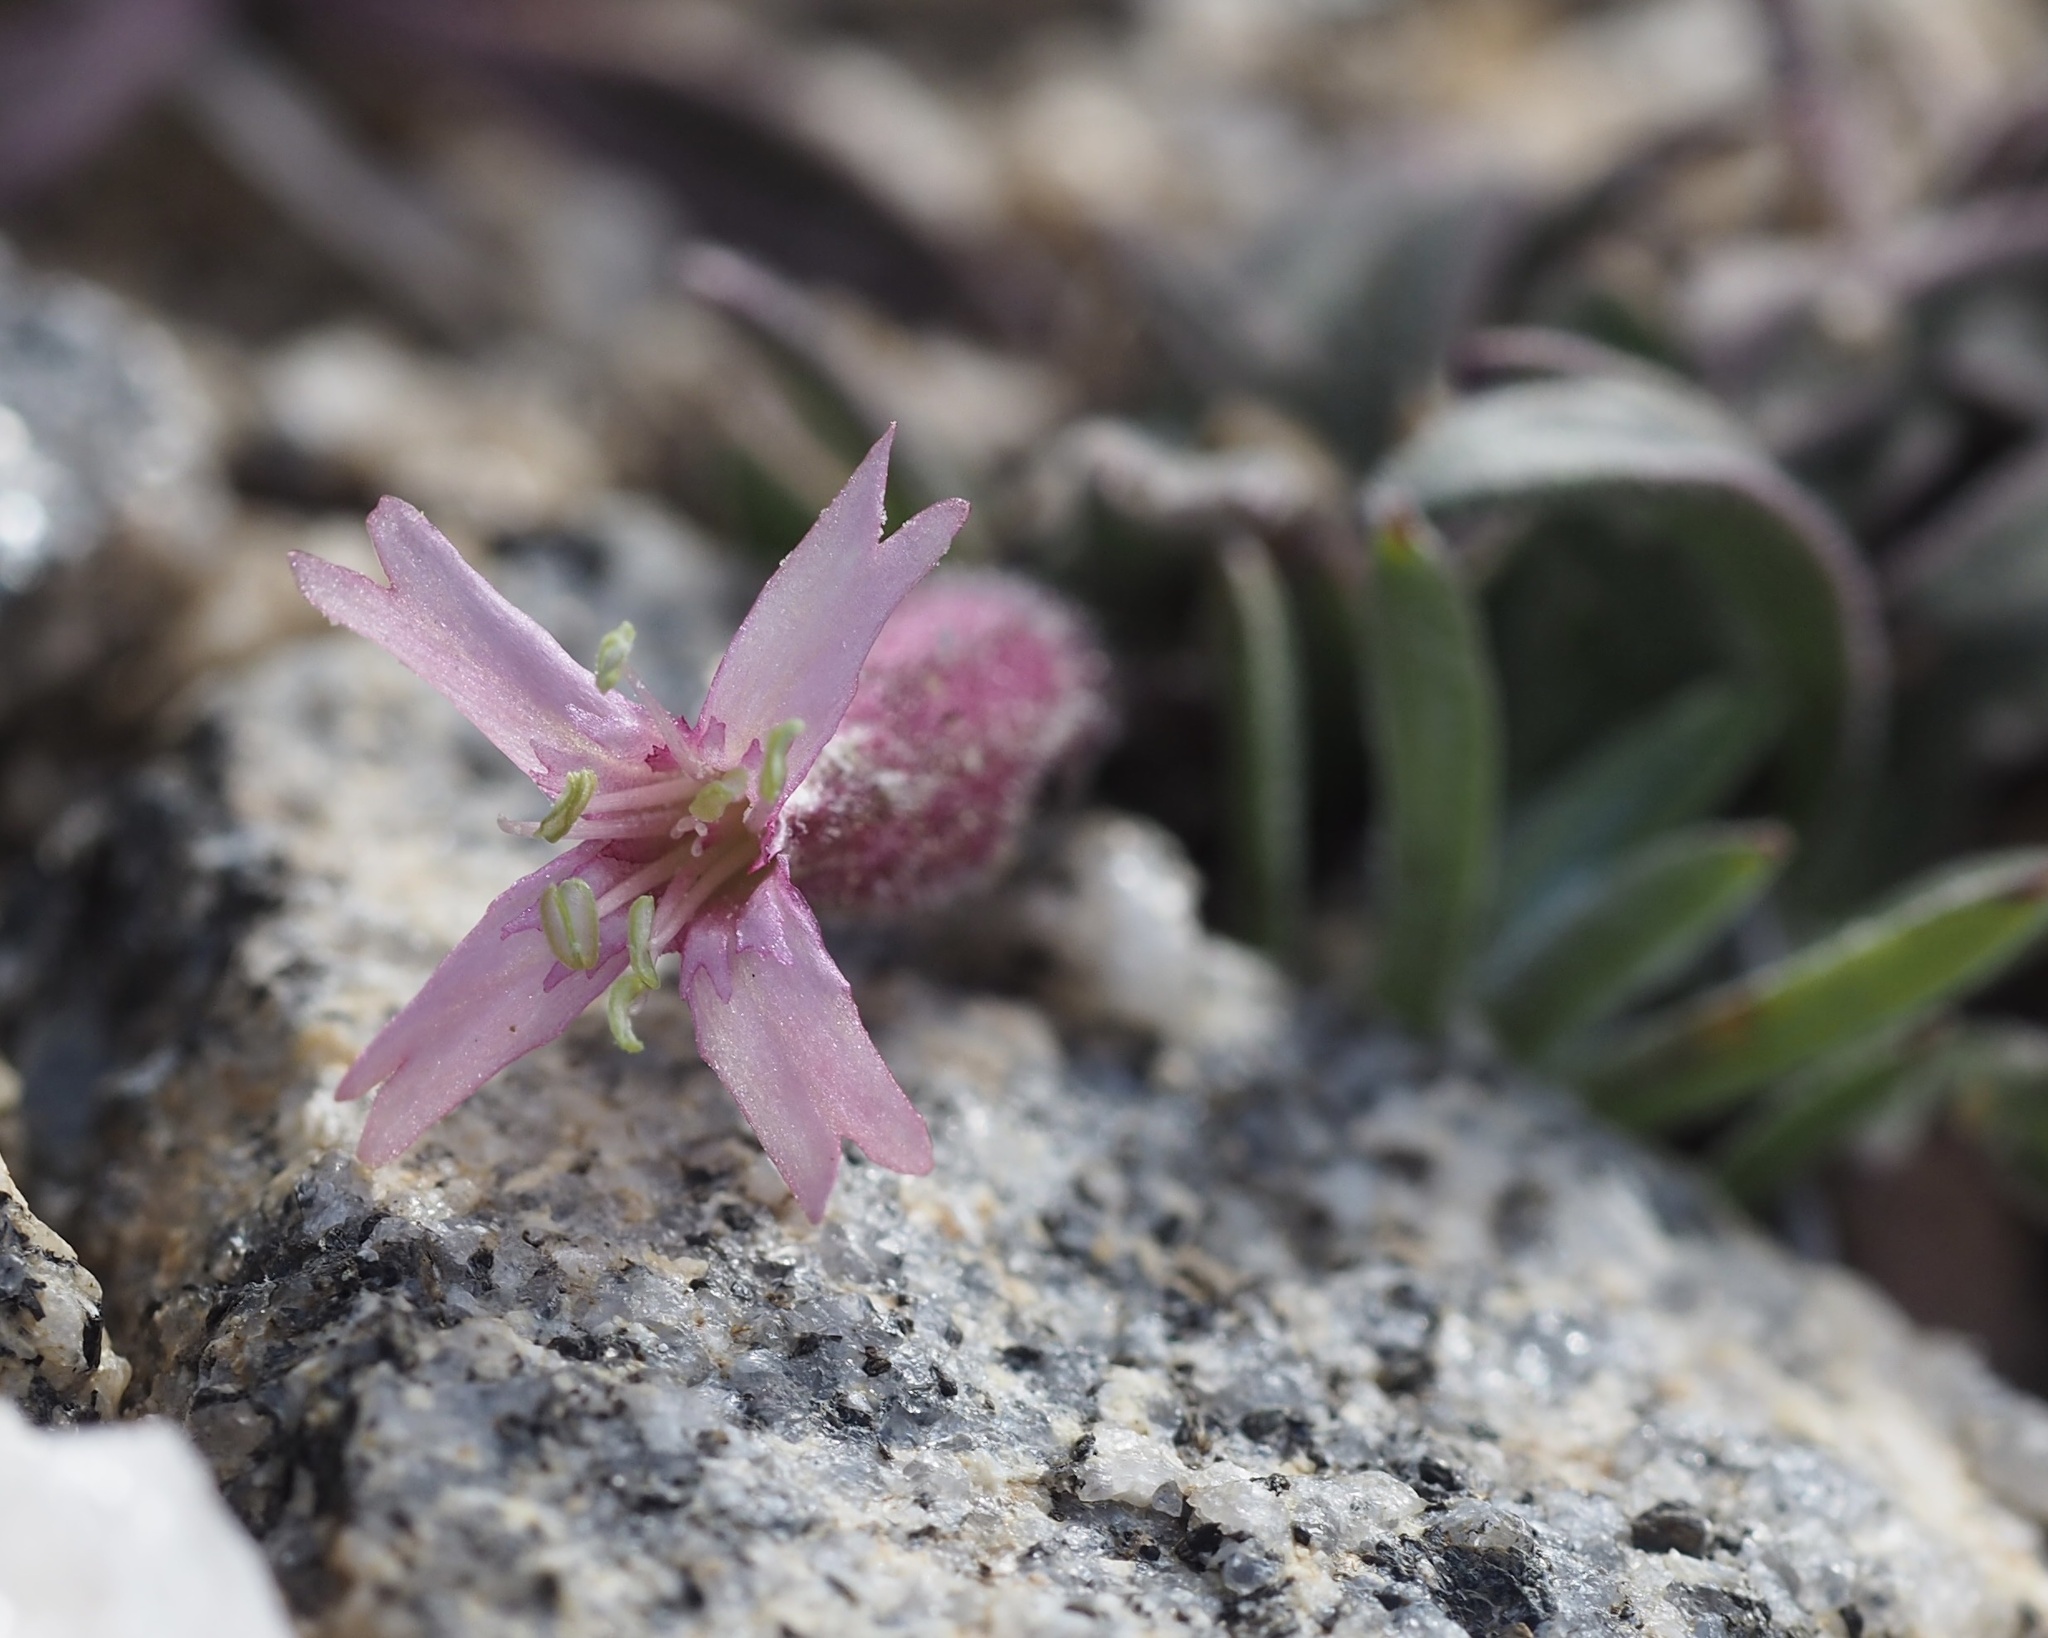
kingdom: Plantae
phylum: Tracheophyta
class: Magnoliopsida
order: Caryophyllales
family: Caryophyllaceae
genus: Silene
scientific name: Silene krantzii
